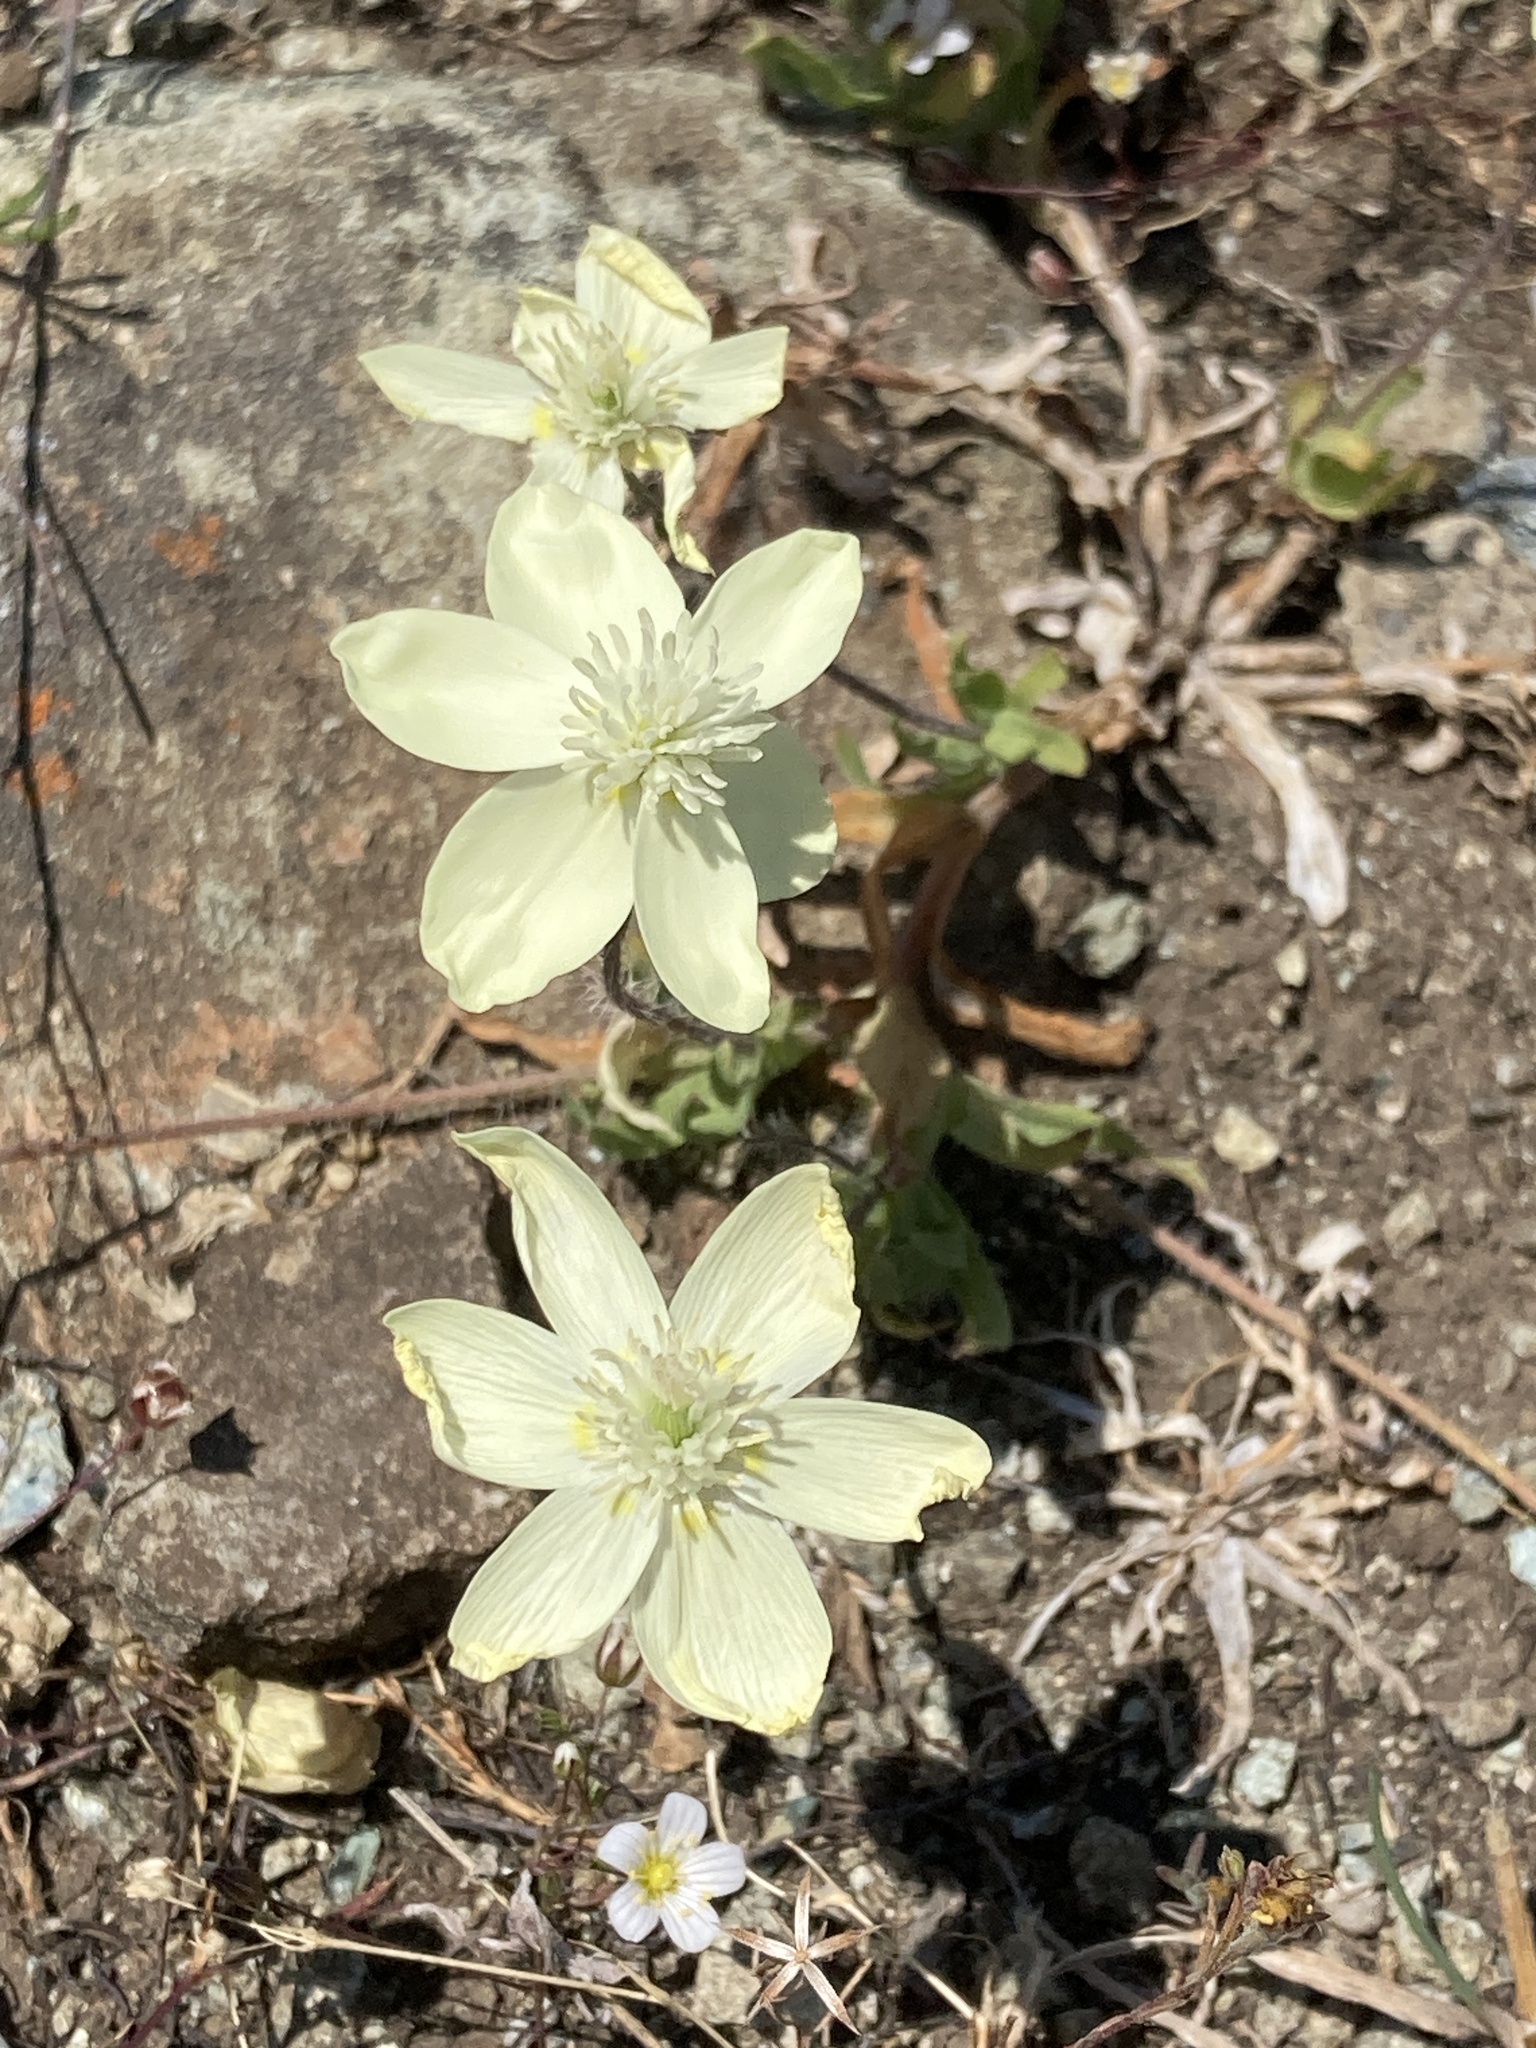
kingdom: Plantae
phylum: Tracheophyta
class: Magnoliopsida
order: Ranunculales
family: Papaveraceae
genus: Platystemon
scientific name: Platystemon californicus
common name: Cream-cups
